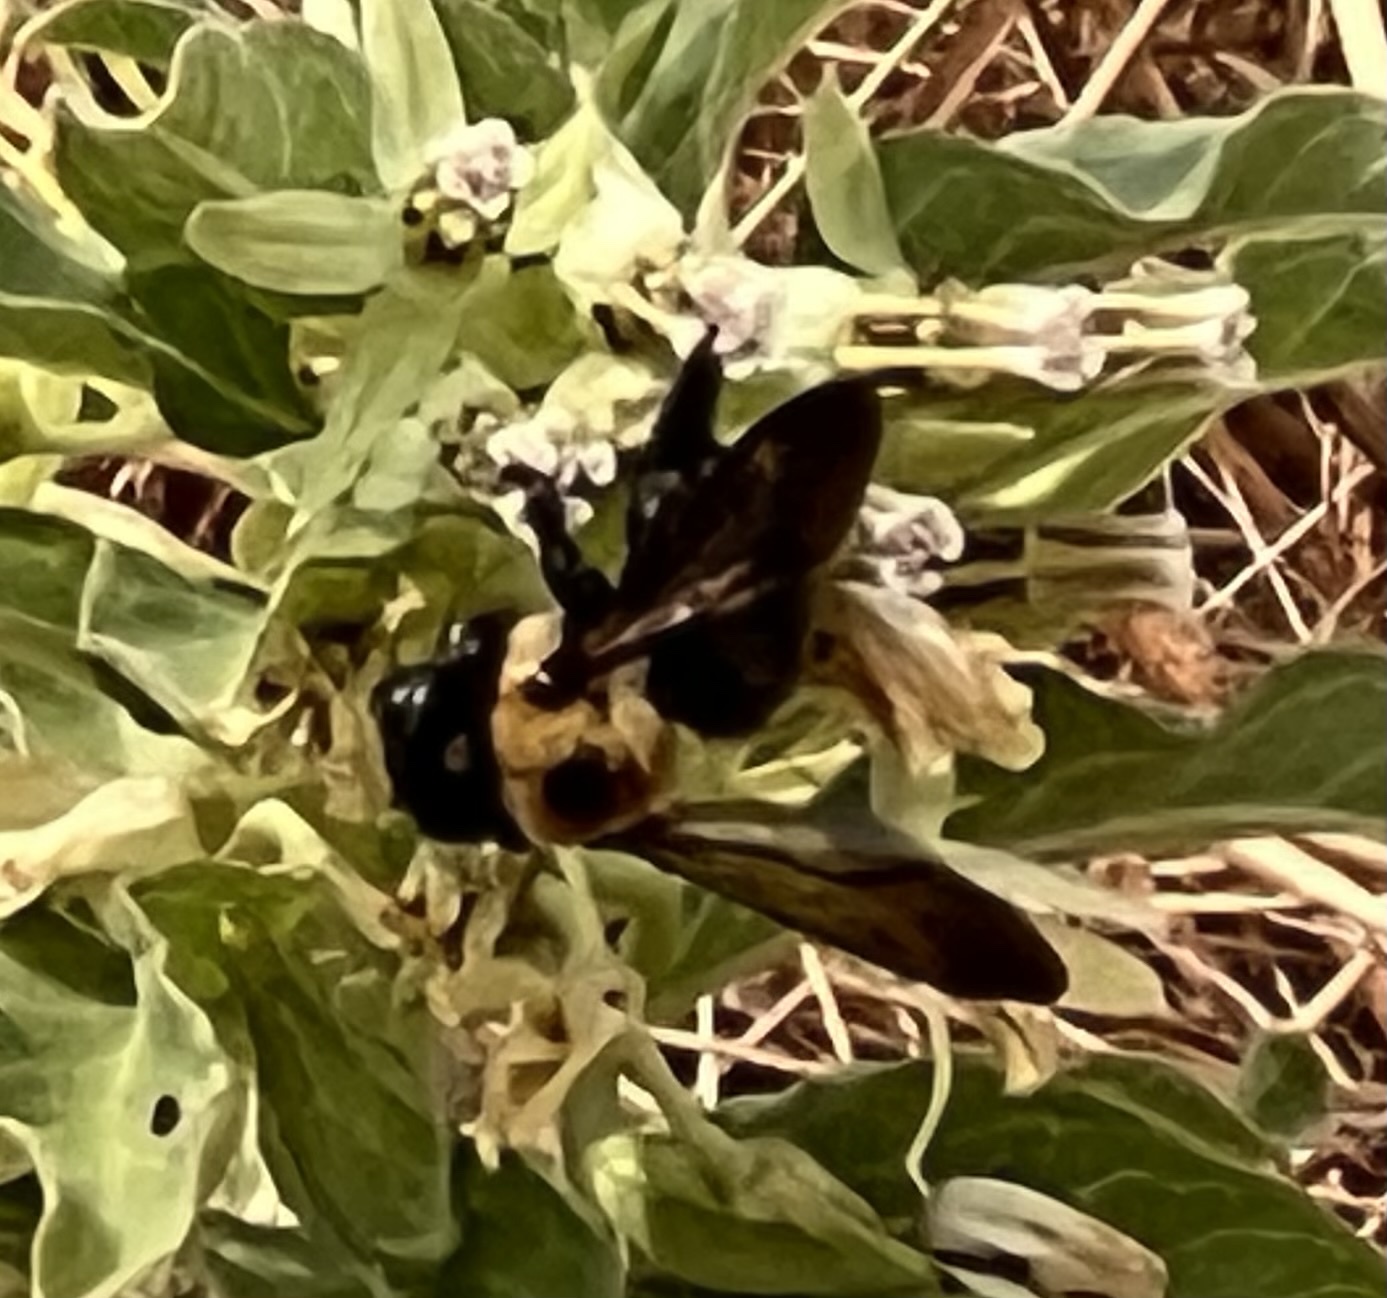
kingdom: Animalia
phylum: Arthropoda
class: Insecta
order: Hymenoptera
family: Apidae
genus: Xylocopa
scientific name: Xylocopa virginica
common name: Carpenter bee
